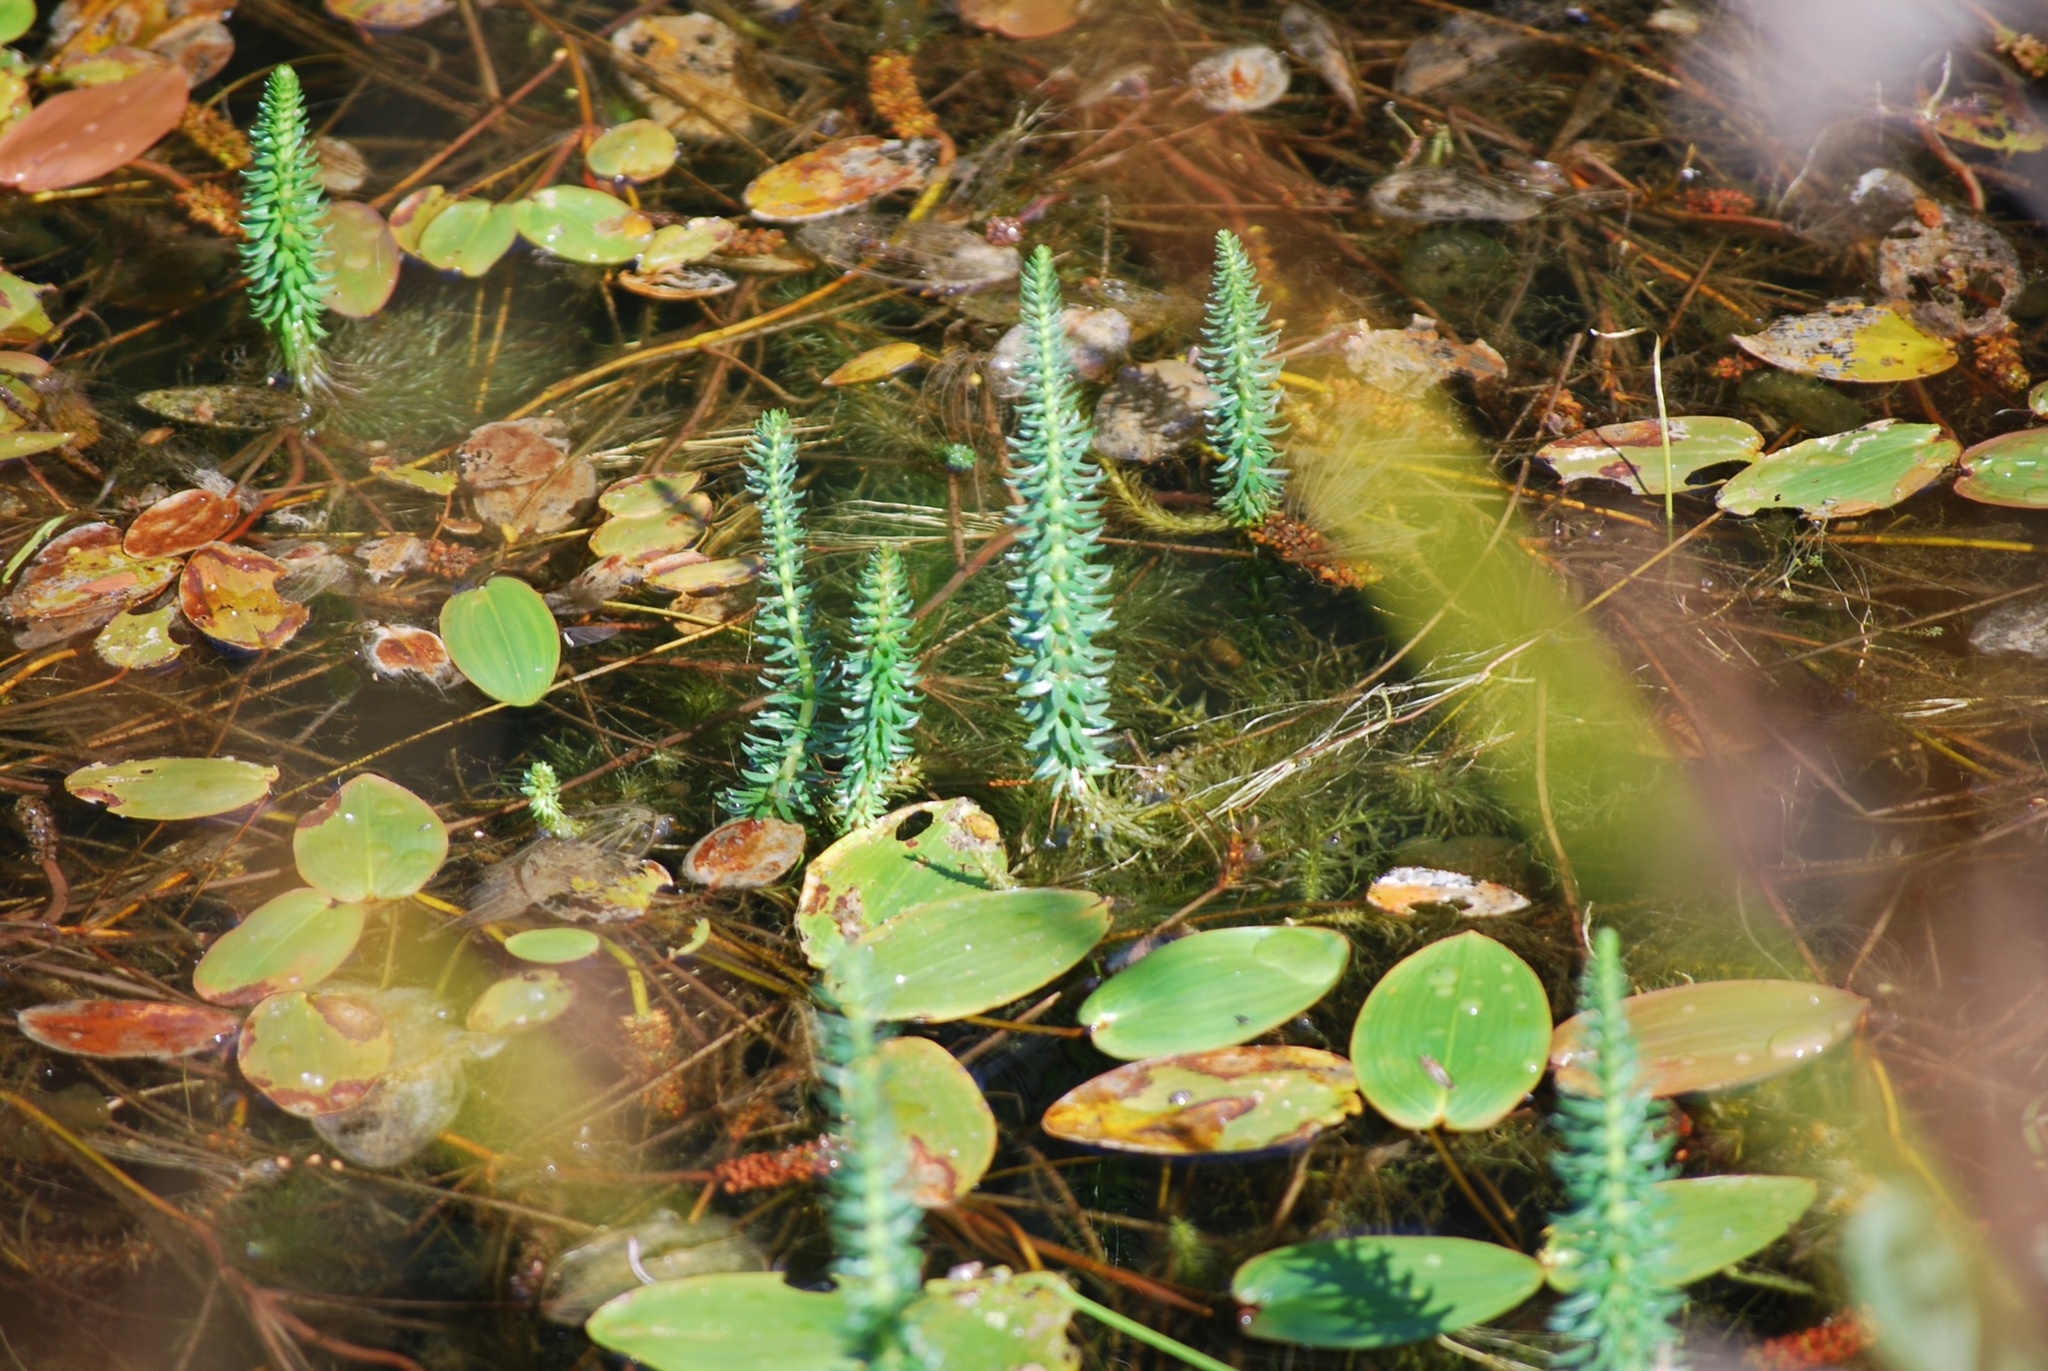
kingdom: Plantae
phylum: Tracheophyta
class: Magnoliopsida
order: Lamiales
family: Plantaginaceae
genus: Hippuris
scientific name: Hippuris vulgaris
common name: Mare's-tail
